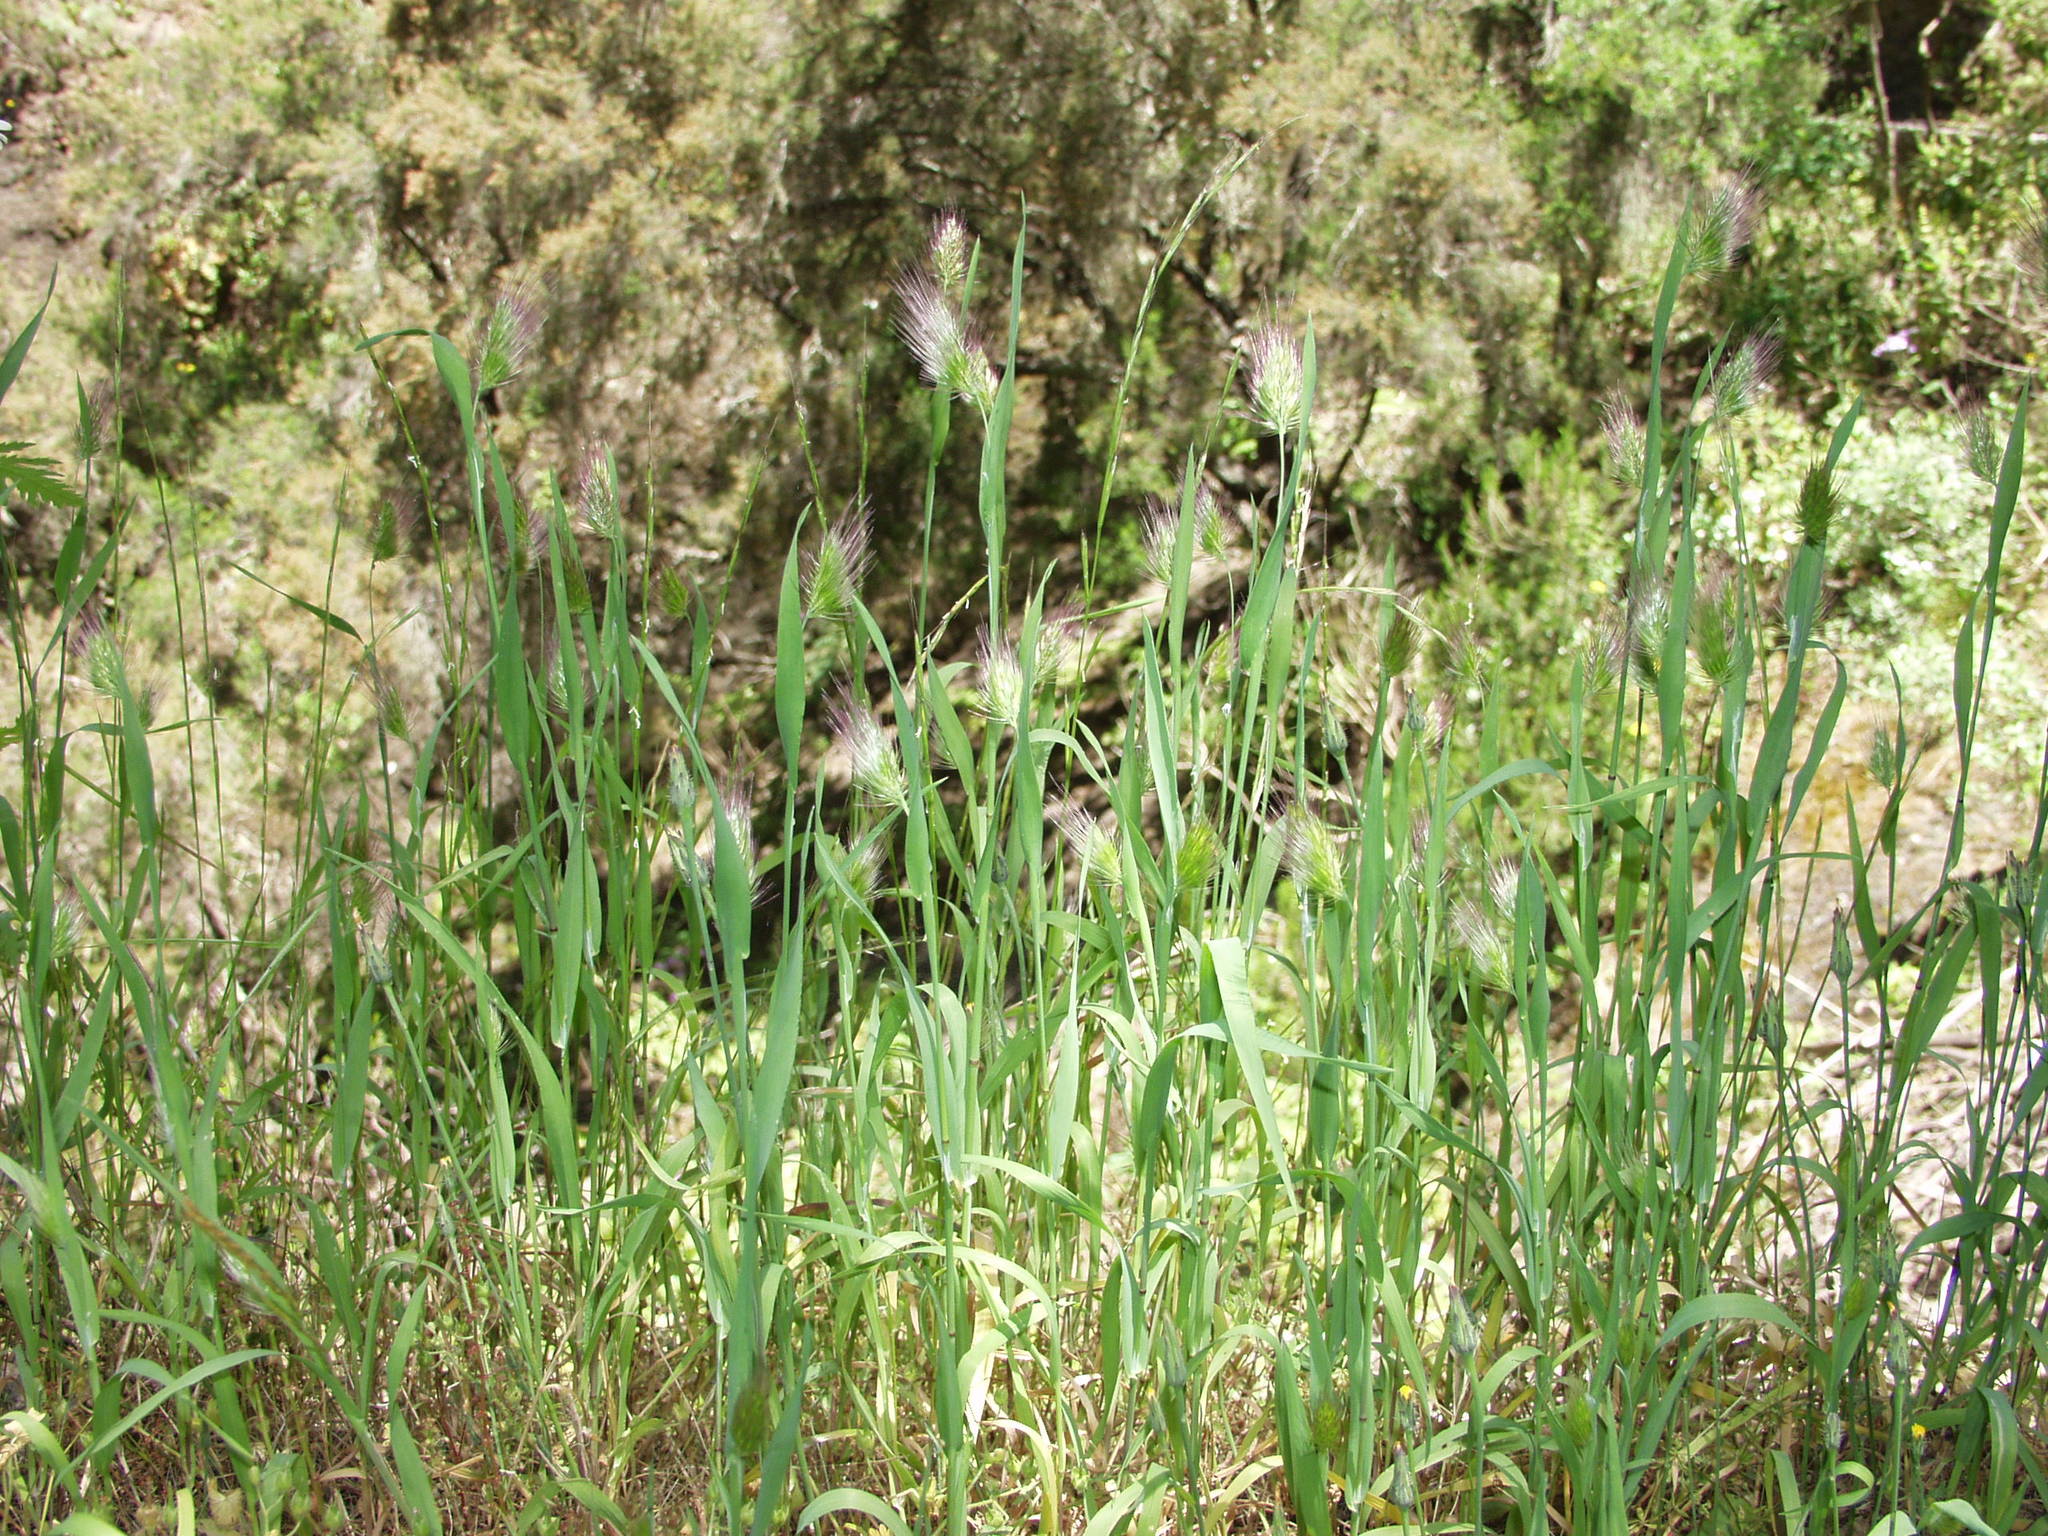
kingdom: Plantae
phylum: Tracheophyta
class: Liliopsida
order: Poales
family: Poaceae
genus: Cynosurus
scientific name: Cynosurus echinatus
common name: Rough dog's-tail
